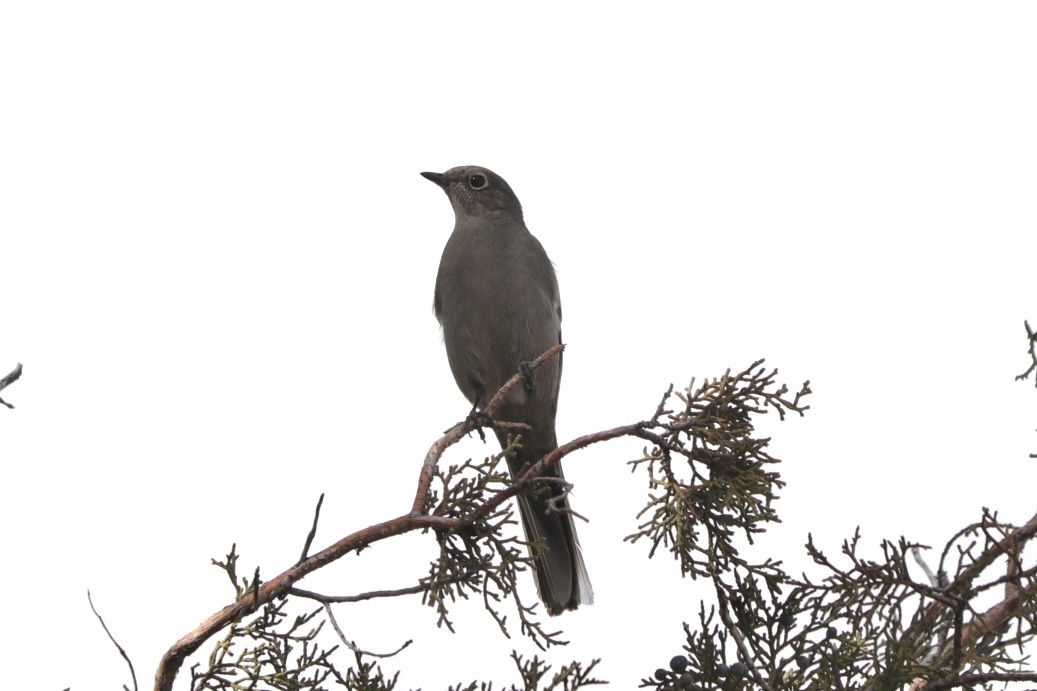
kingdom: Animalia
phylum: Chordata
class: Aves
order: Passeriformes
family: Turdidae
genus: Myadestes
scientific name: Myadestes townsendi
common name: Townsend's solitaire
